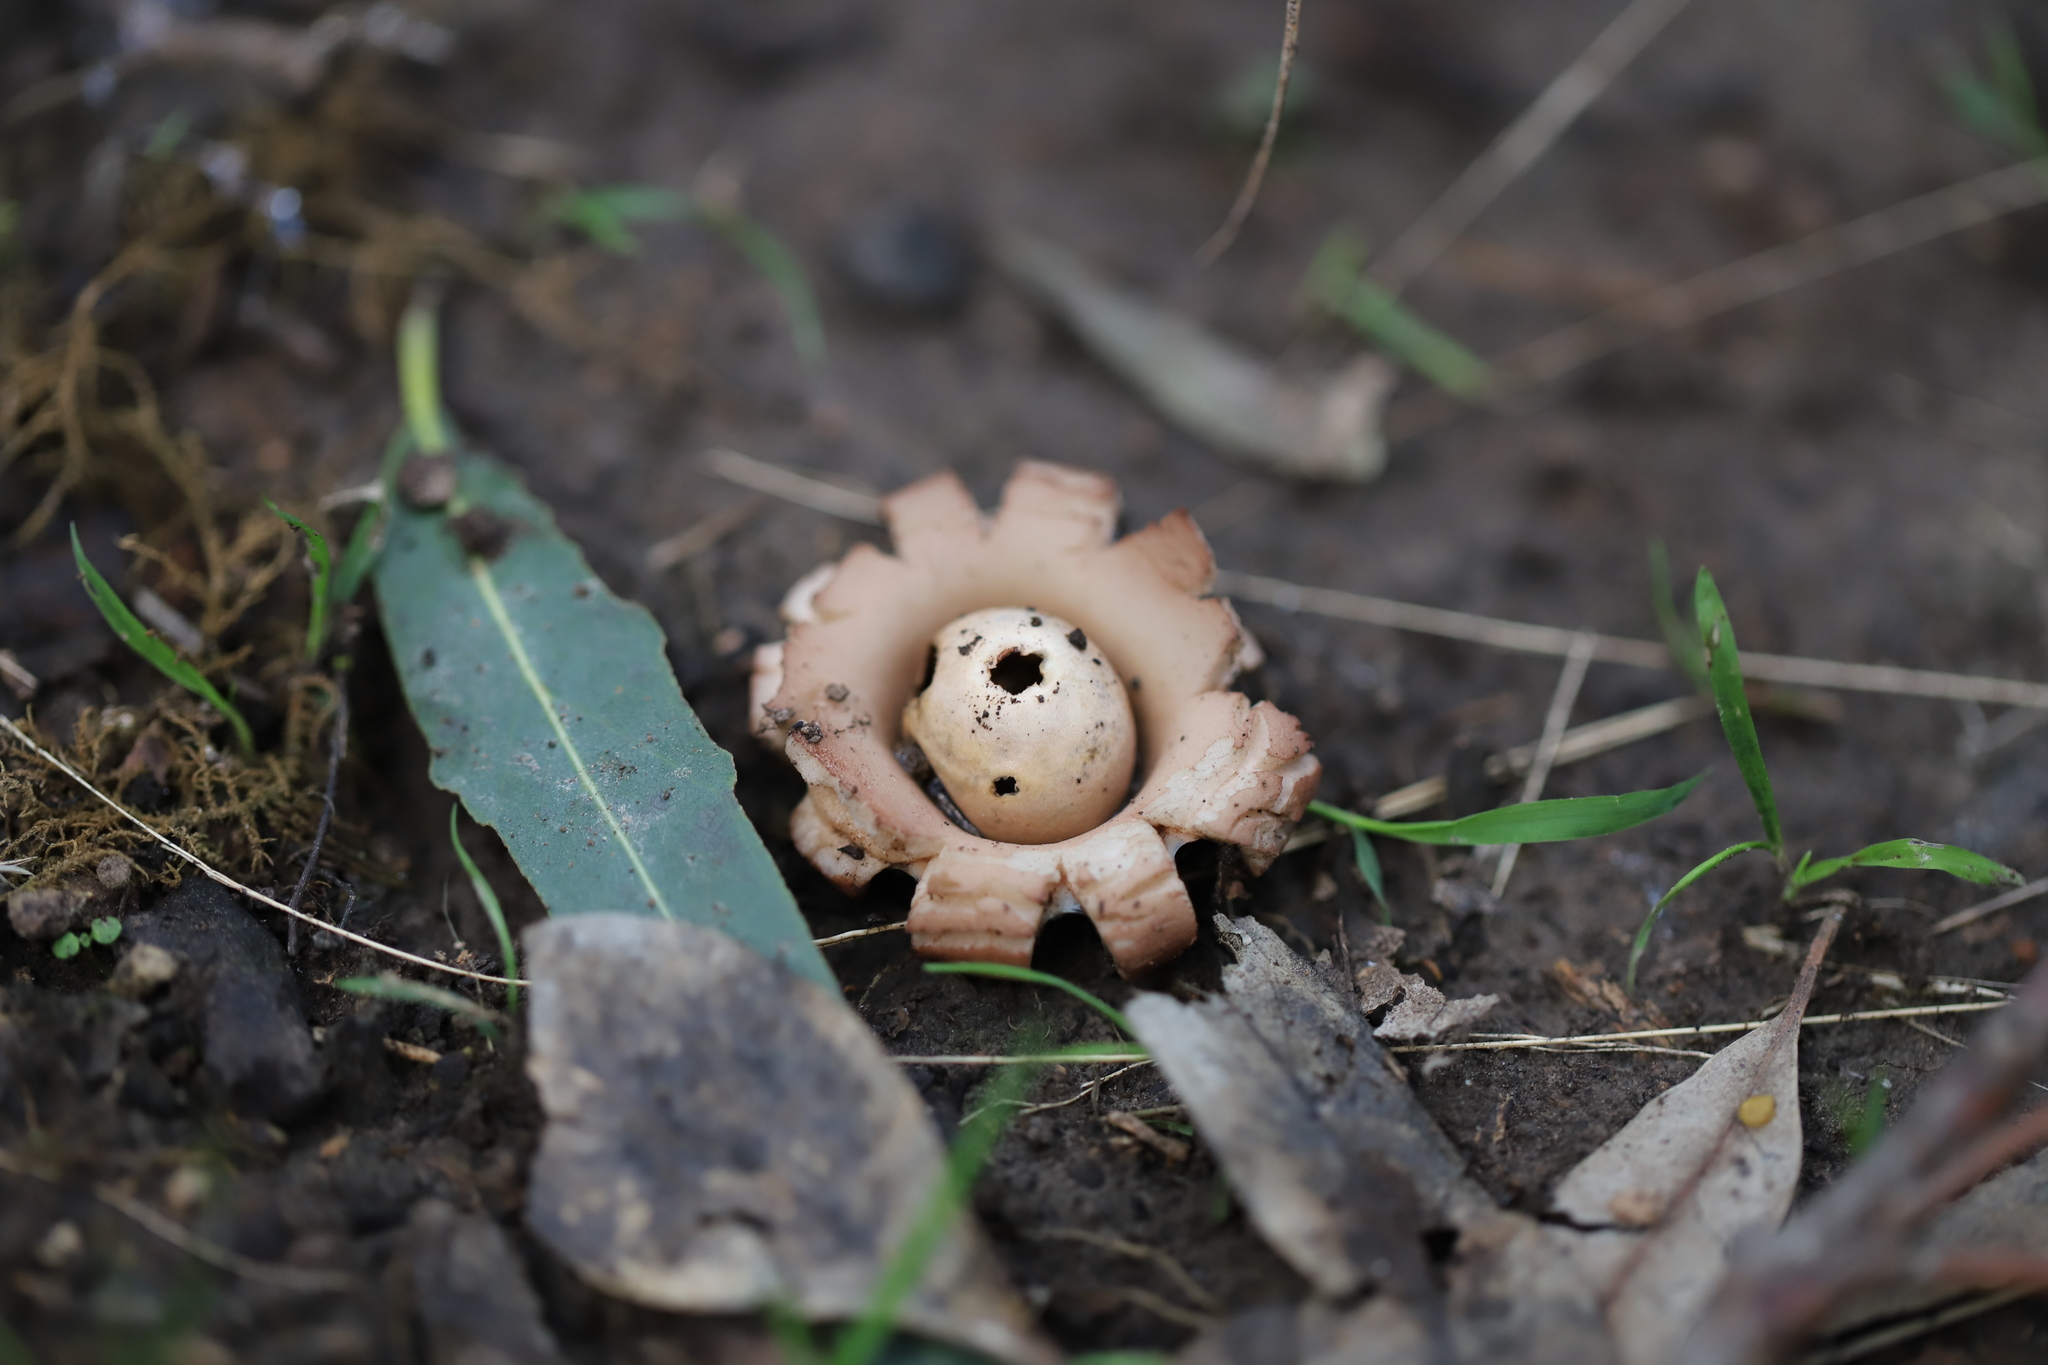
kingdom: Fungi
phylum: Basidiomycota
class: Agaricomycetes
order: Geastrales
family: Geastraceae
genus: Geastrum
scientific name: Geastrum triplex
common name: Collared earthstar
